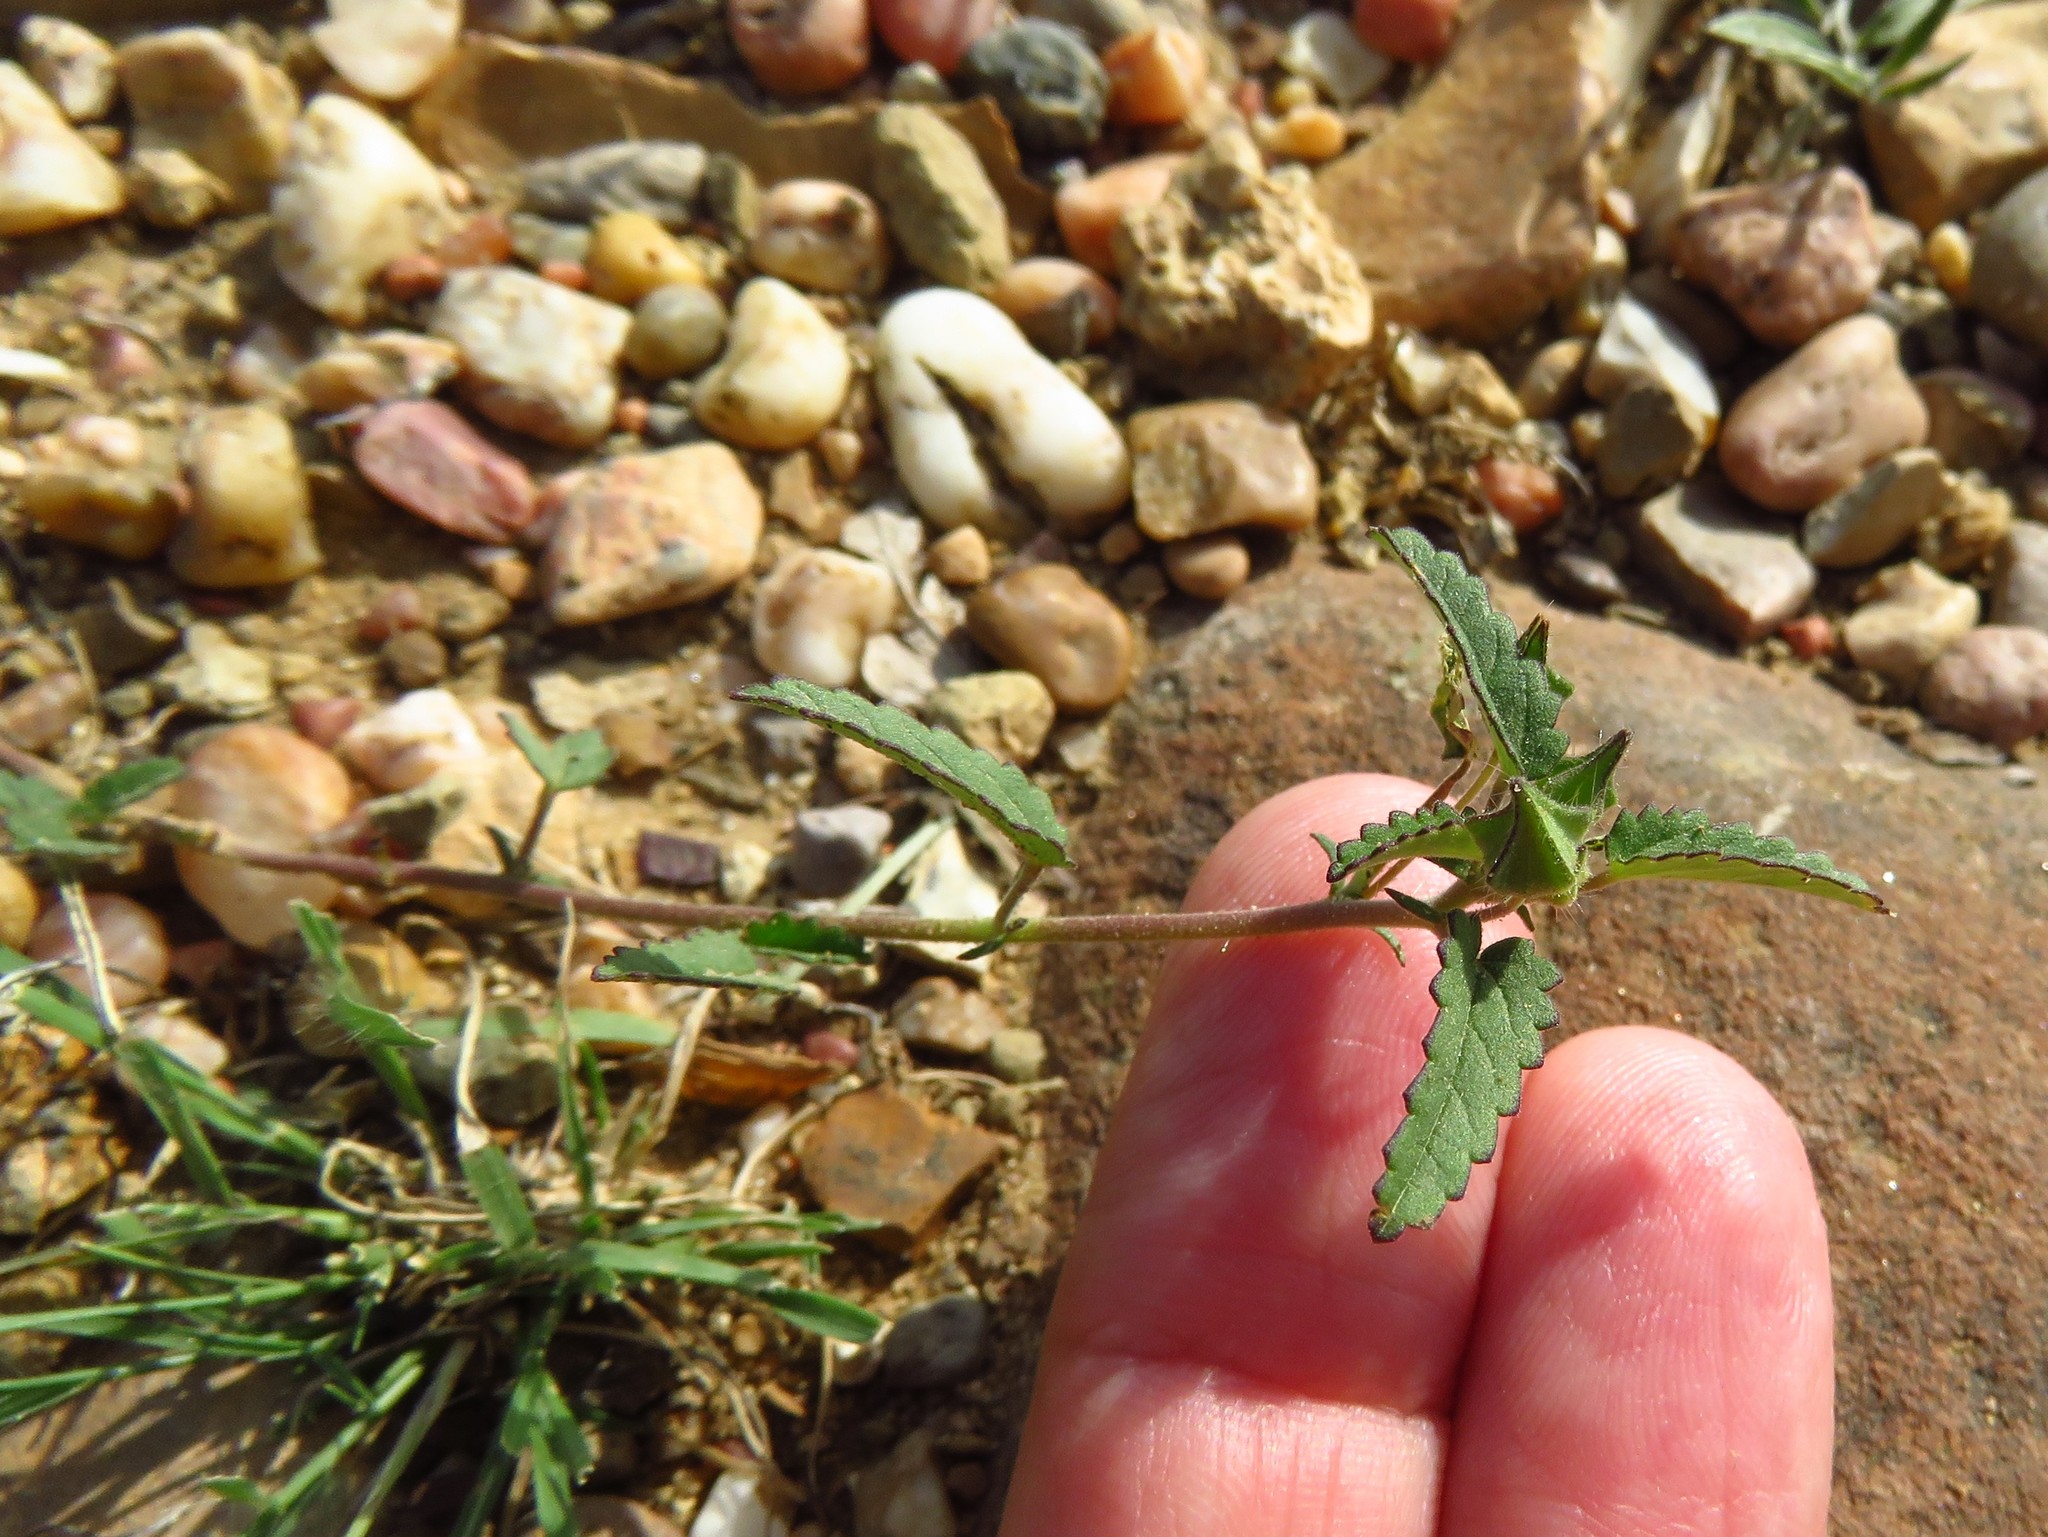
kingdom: Plantae
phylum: Tracheophyta
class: Magnoliopsida
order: Malvales
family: Malvaceae
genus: Sida
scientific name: Sida abutilifolia
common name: Spreading fanpetals
